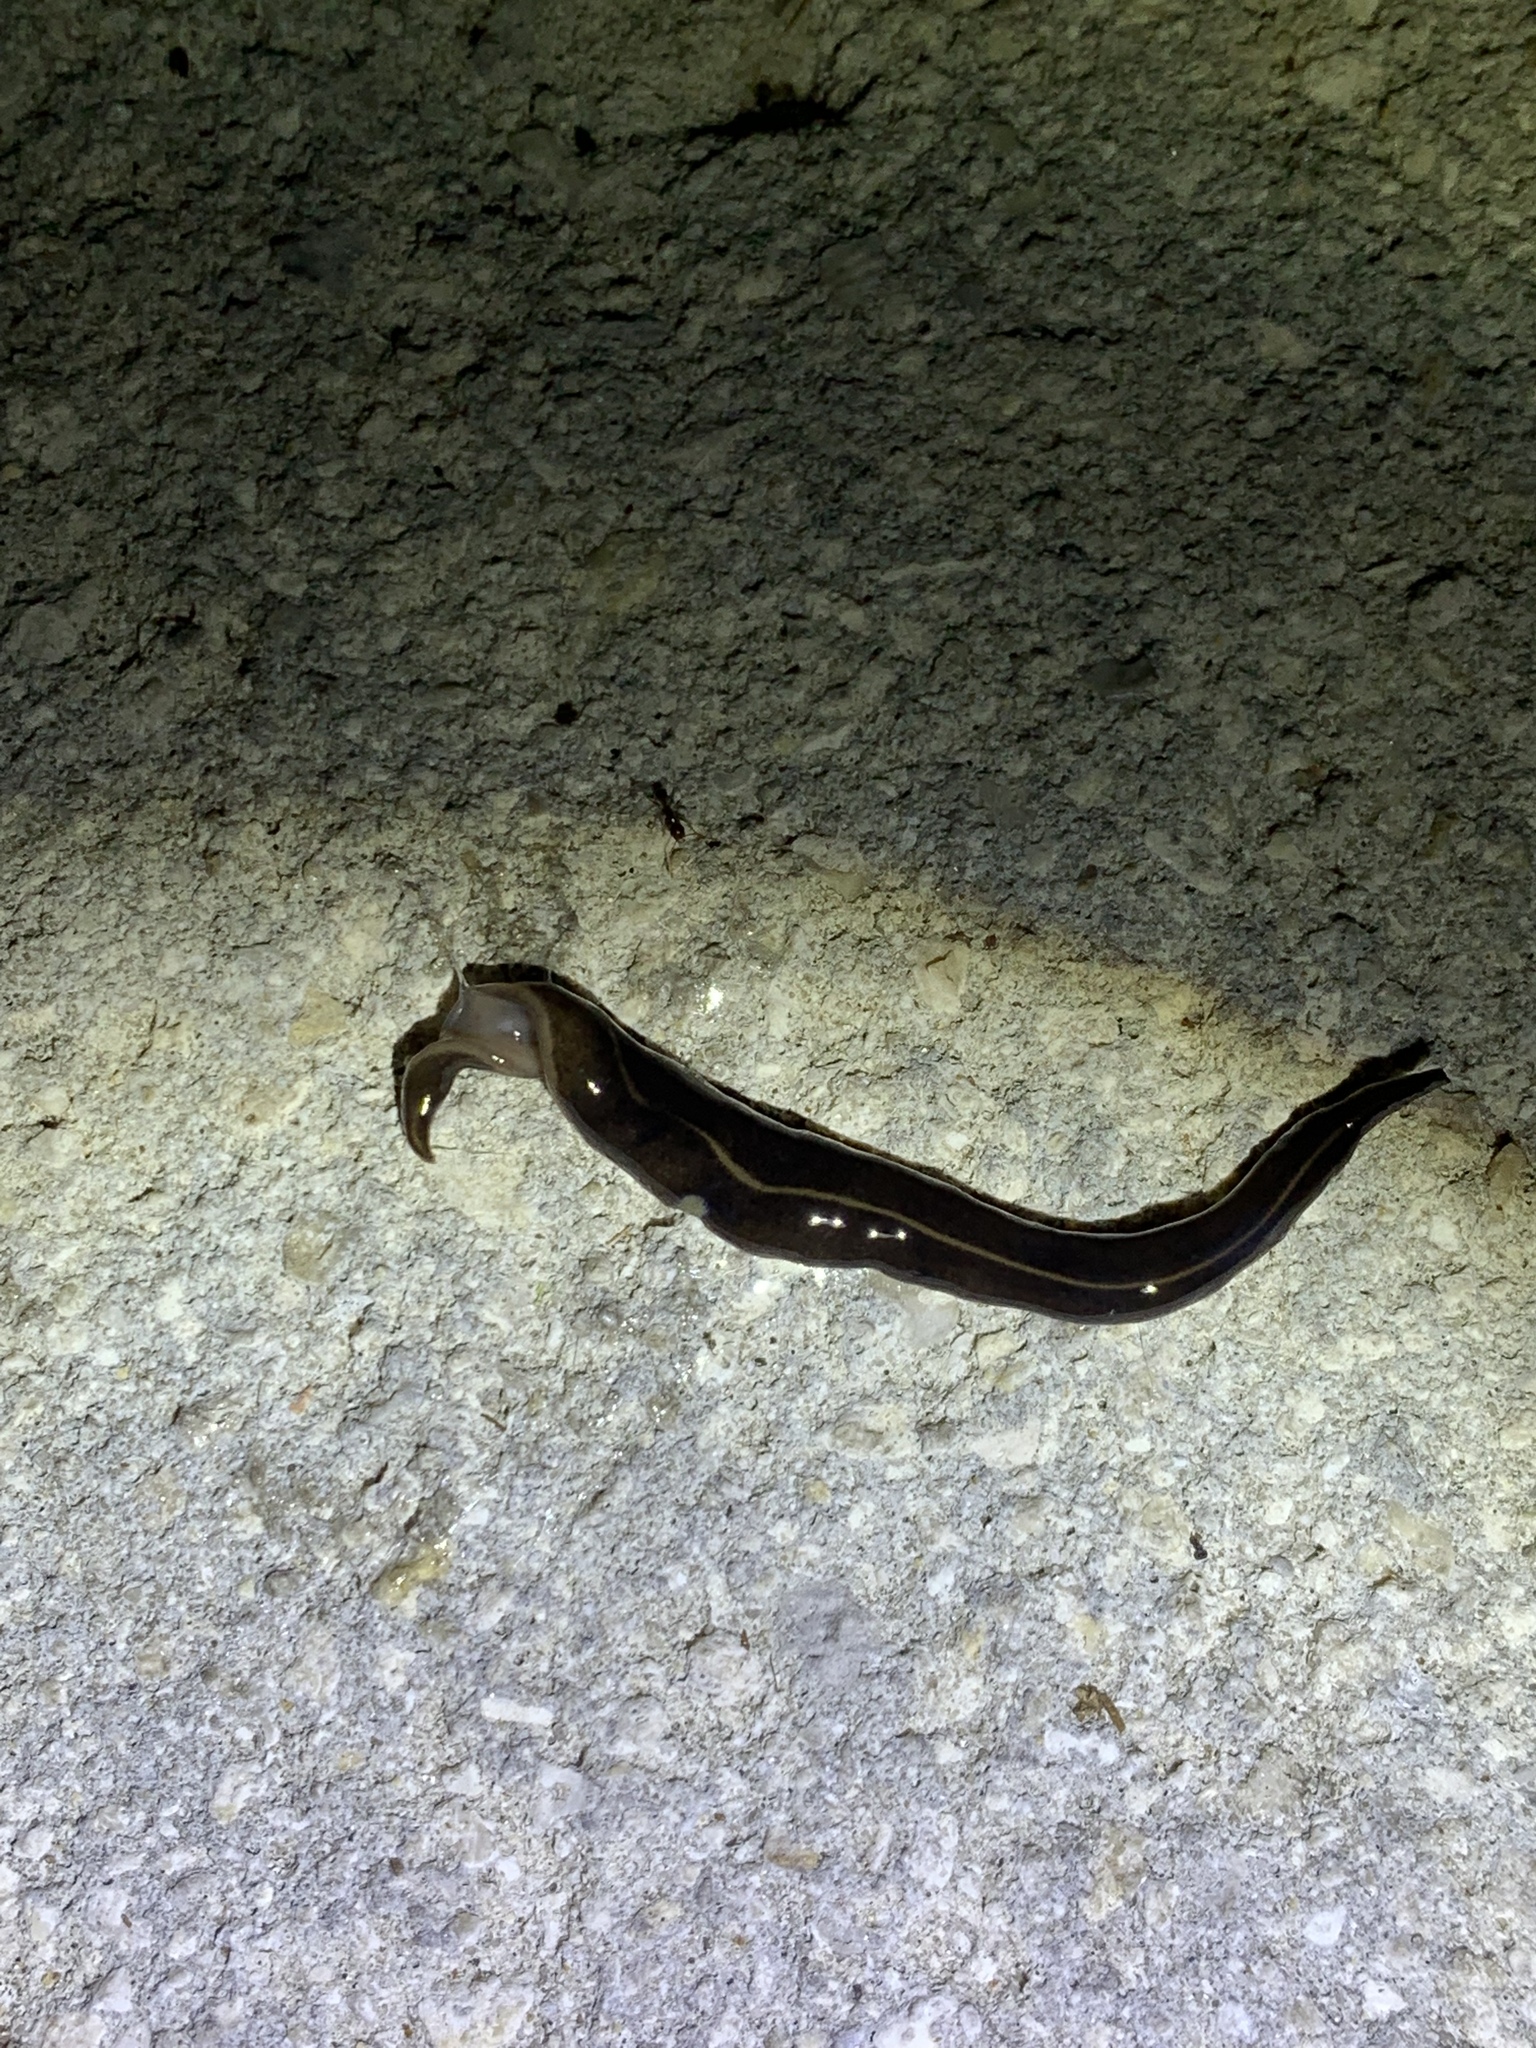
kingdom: Animalia
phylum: Platyhelminthes
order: Tricladida
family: Geoplanidae
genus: Platydemus
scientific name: Platydemus manokwari
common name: New guinea flatworm
